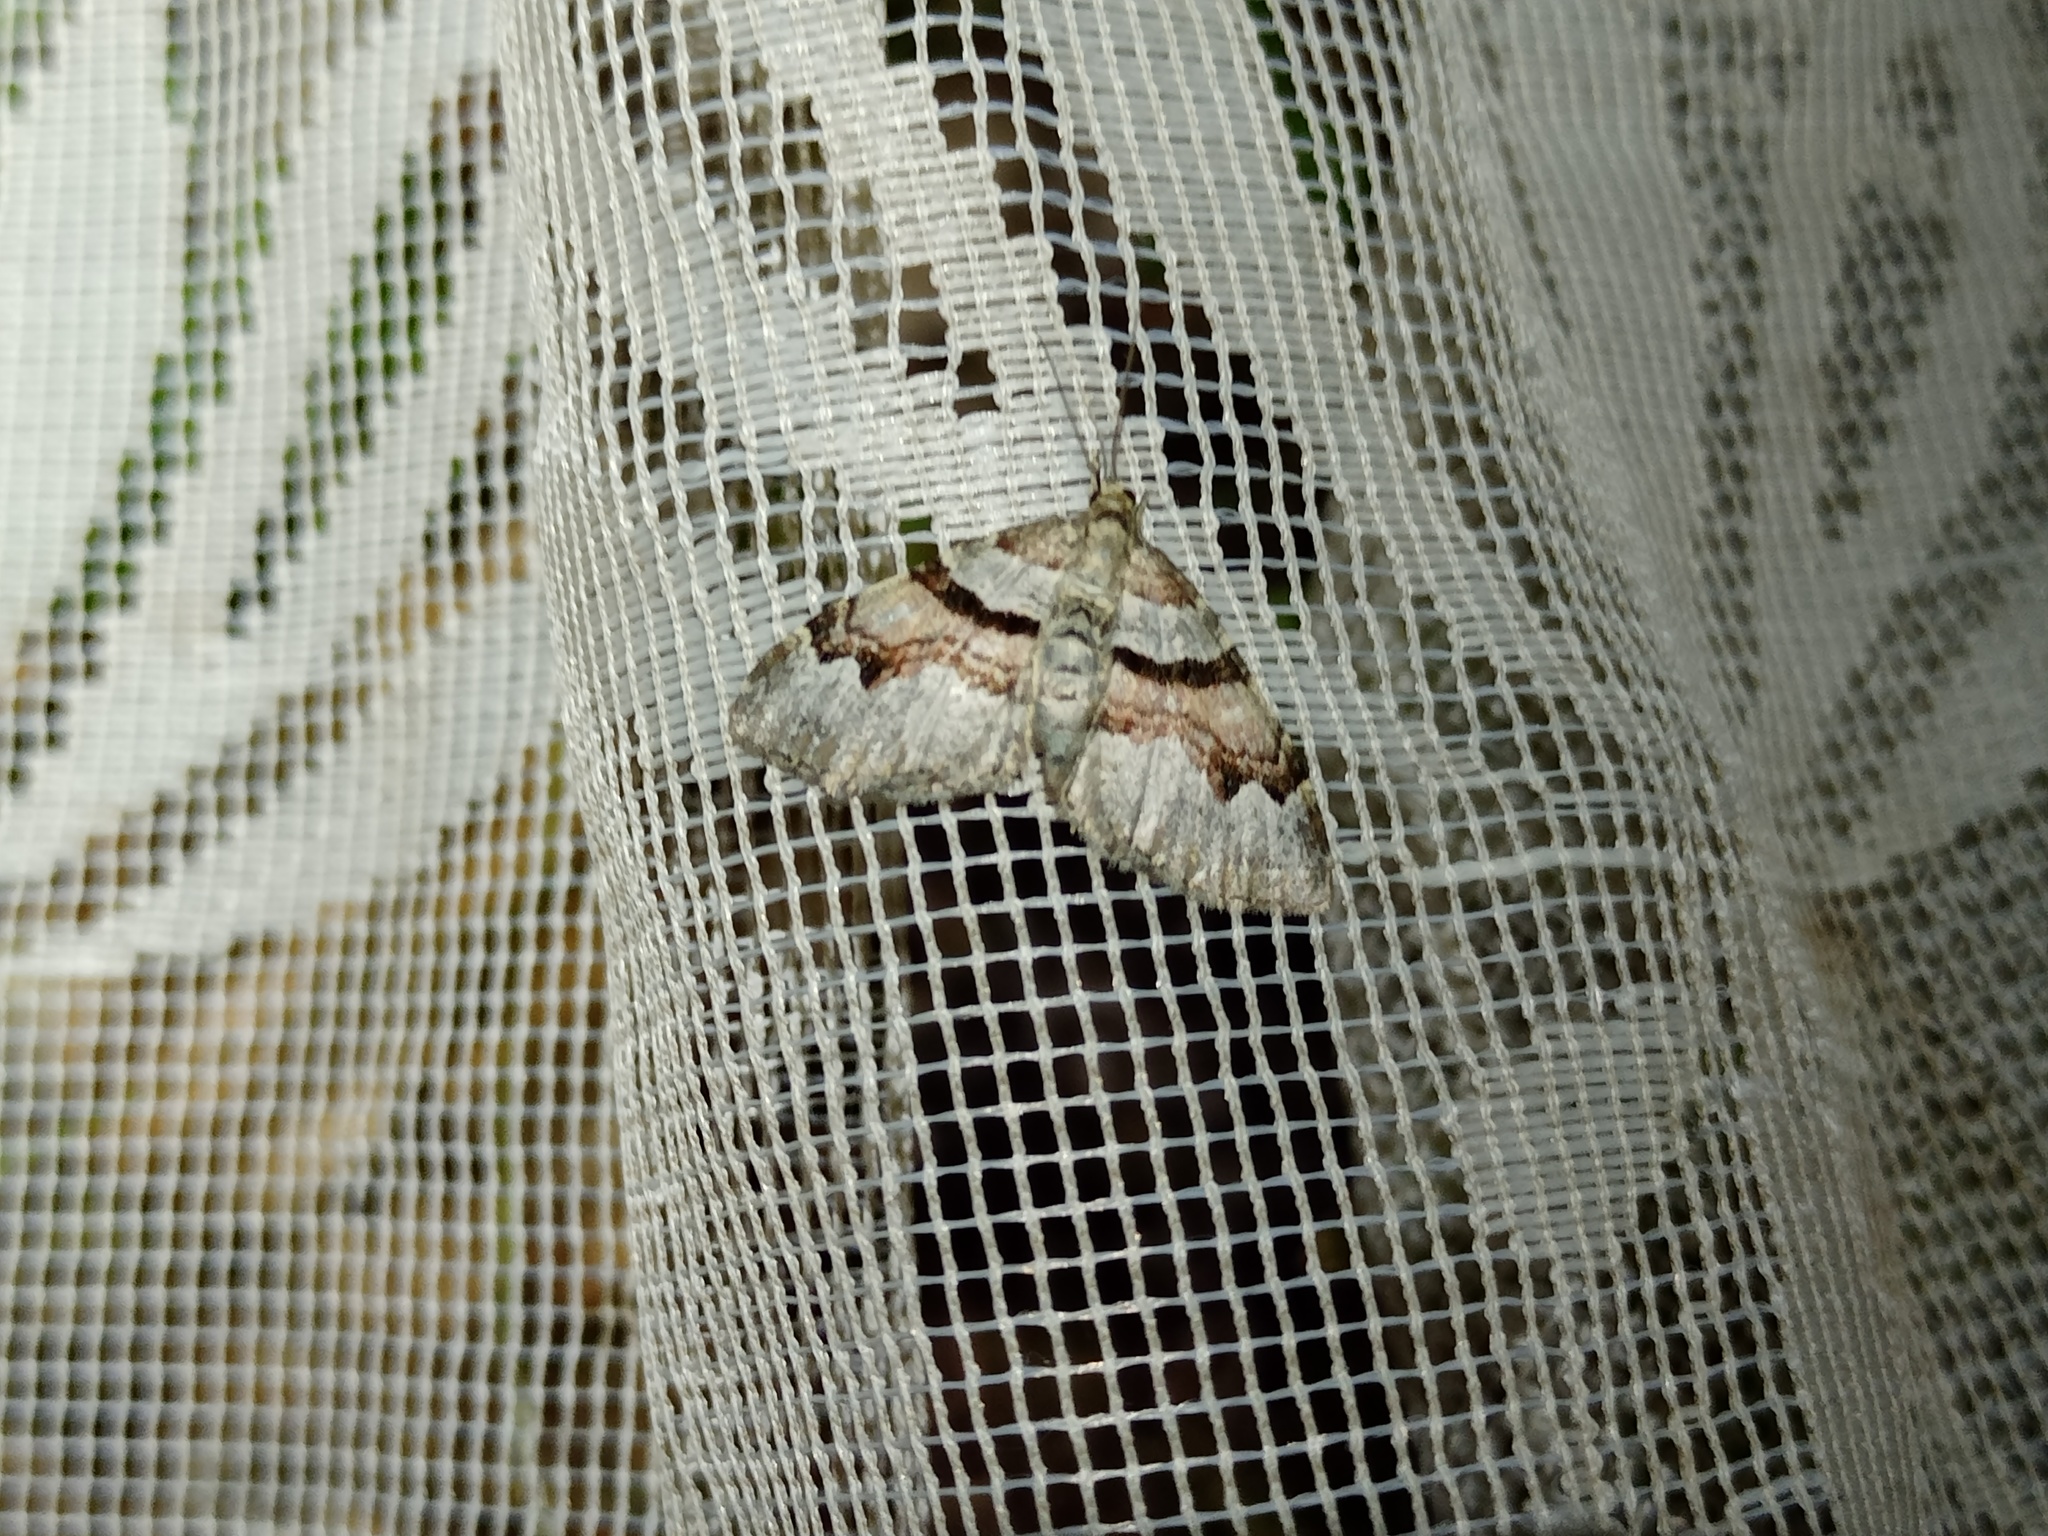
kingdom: Animalia
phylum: Arthropoda
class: Insecta
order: Lepidoptera
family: Geometridae
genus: Xanthorhoe
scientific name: Xanthorhoe designata
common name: Flame carpet
